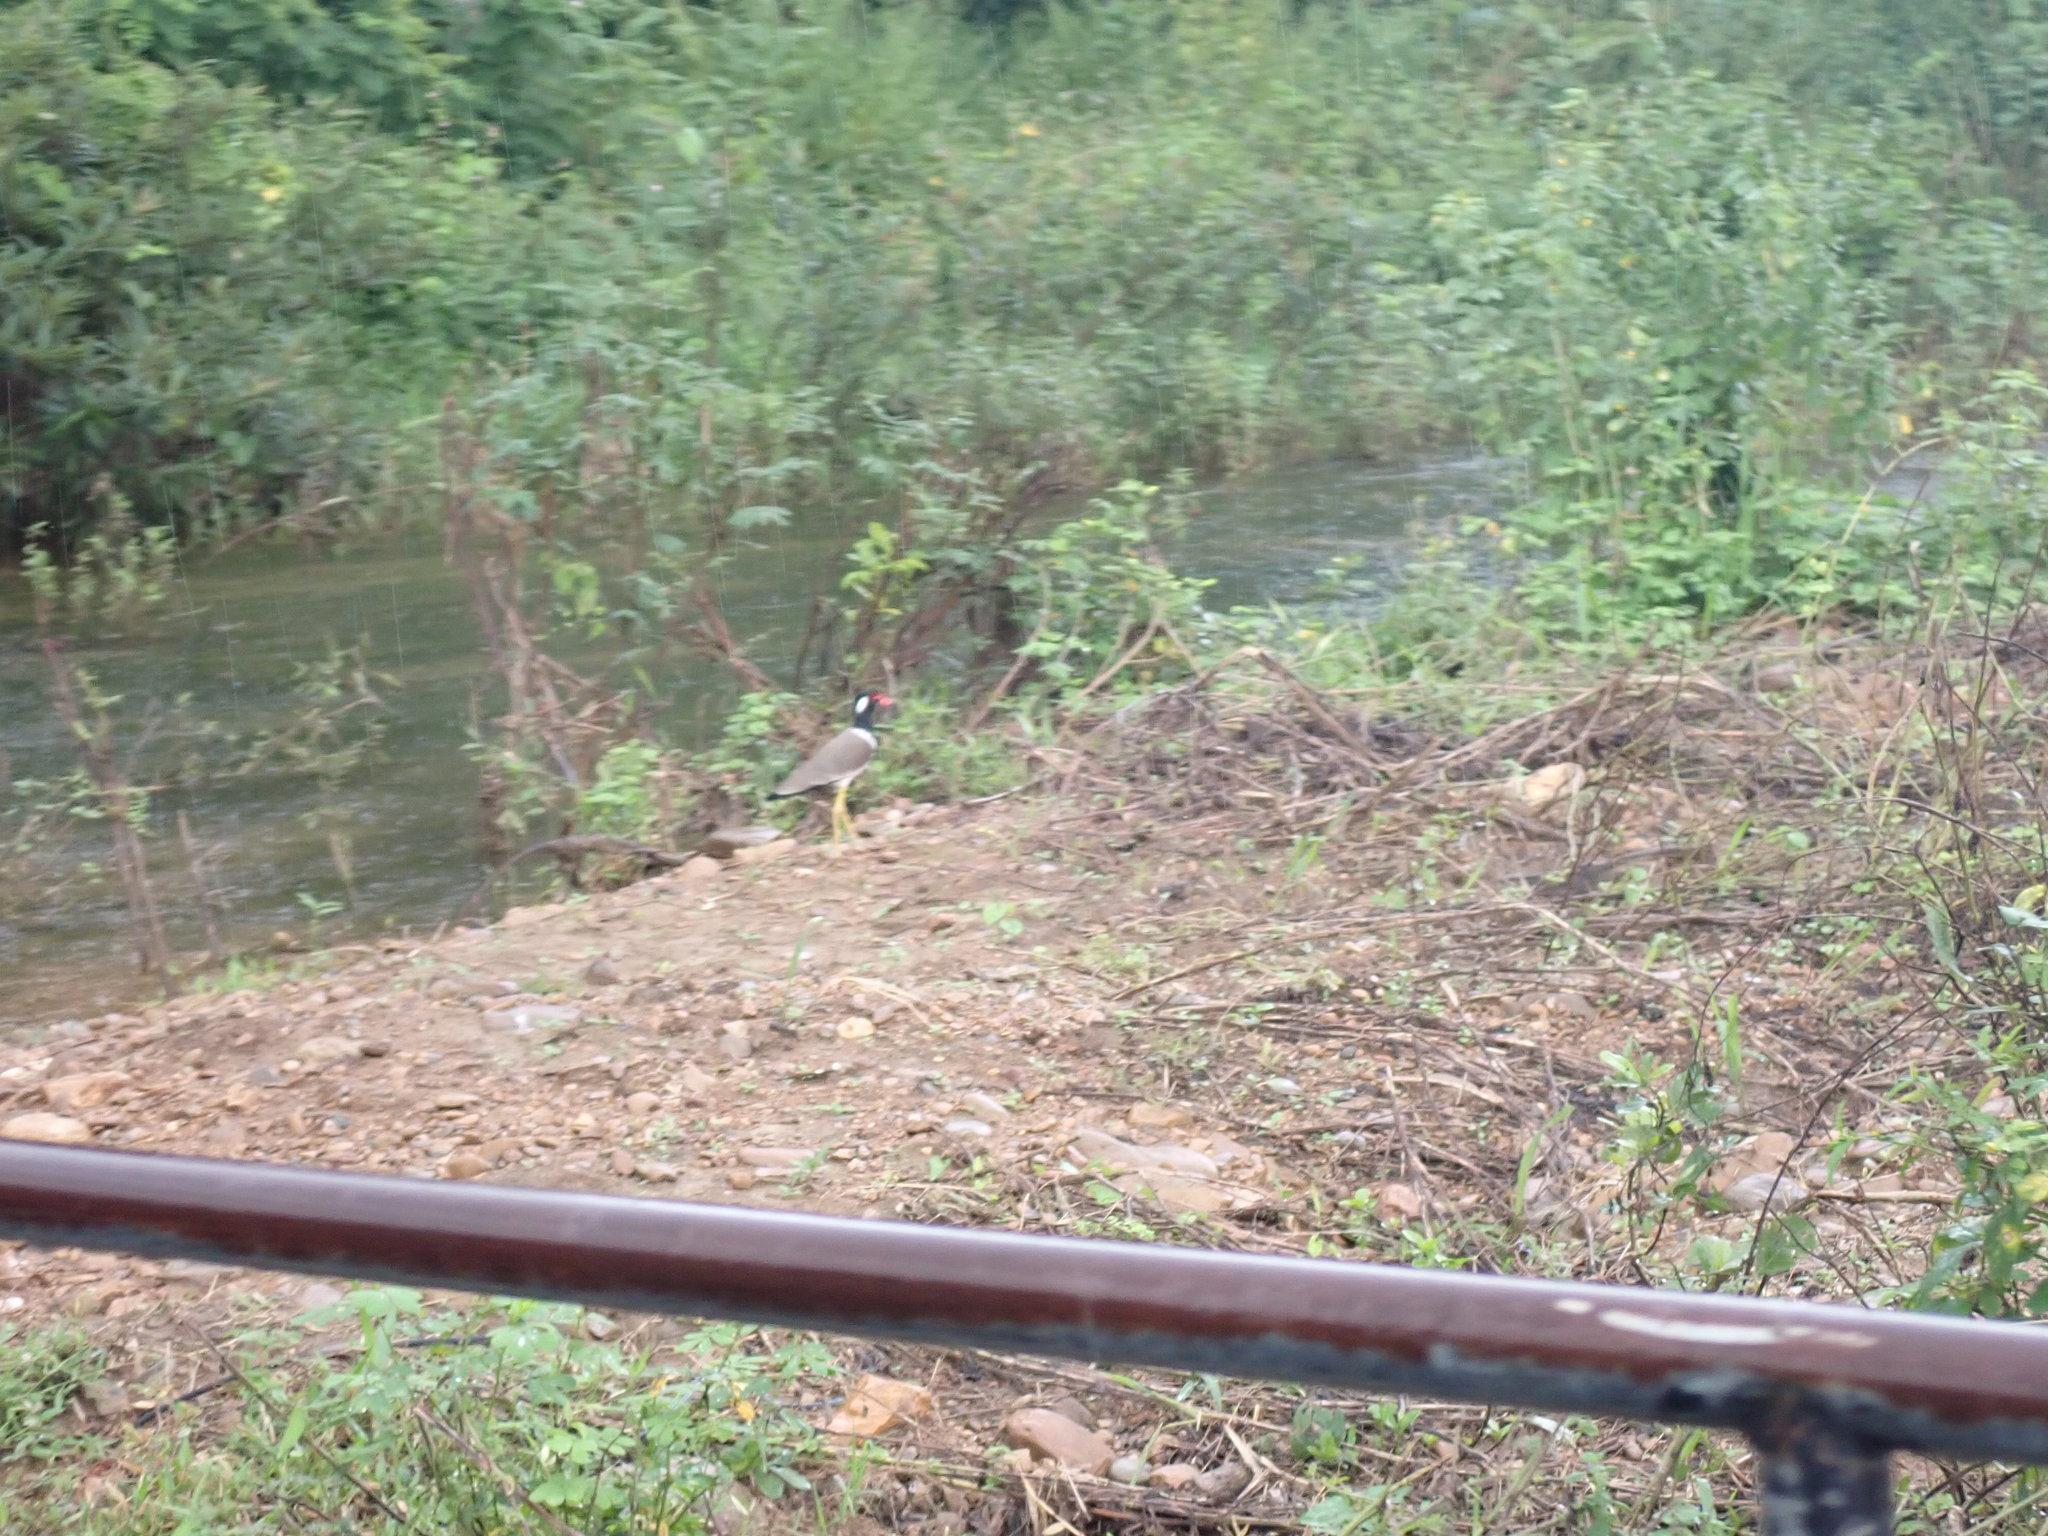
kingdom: Animalia
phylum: Chordata
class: Aves
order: Charadriiformes
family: Charadriidae
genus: Vanellus
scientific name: Vanellus indicus
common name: Red-wattled lapwing
